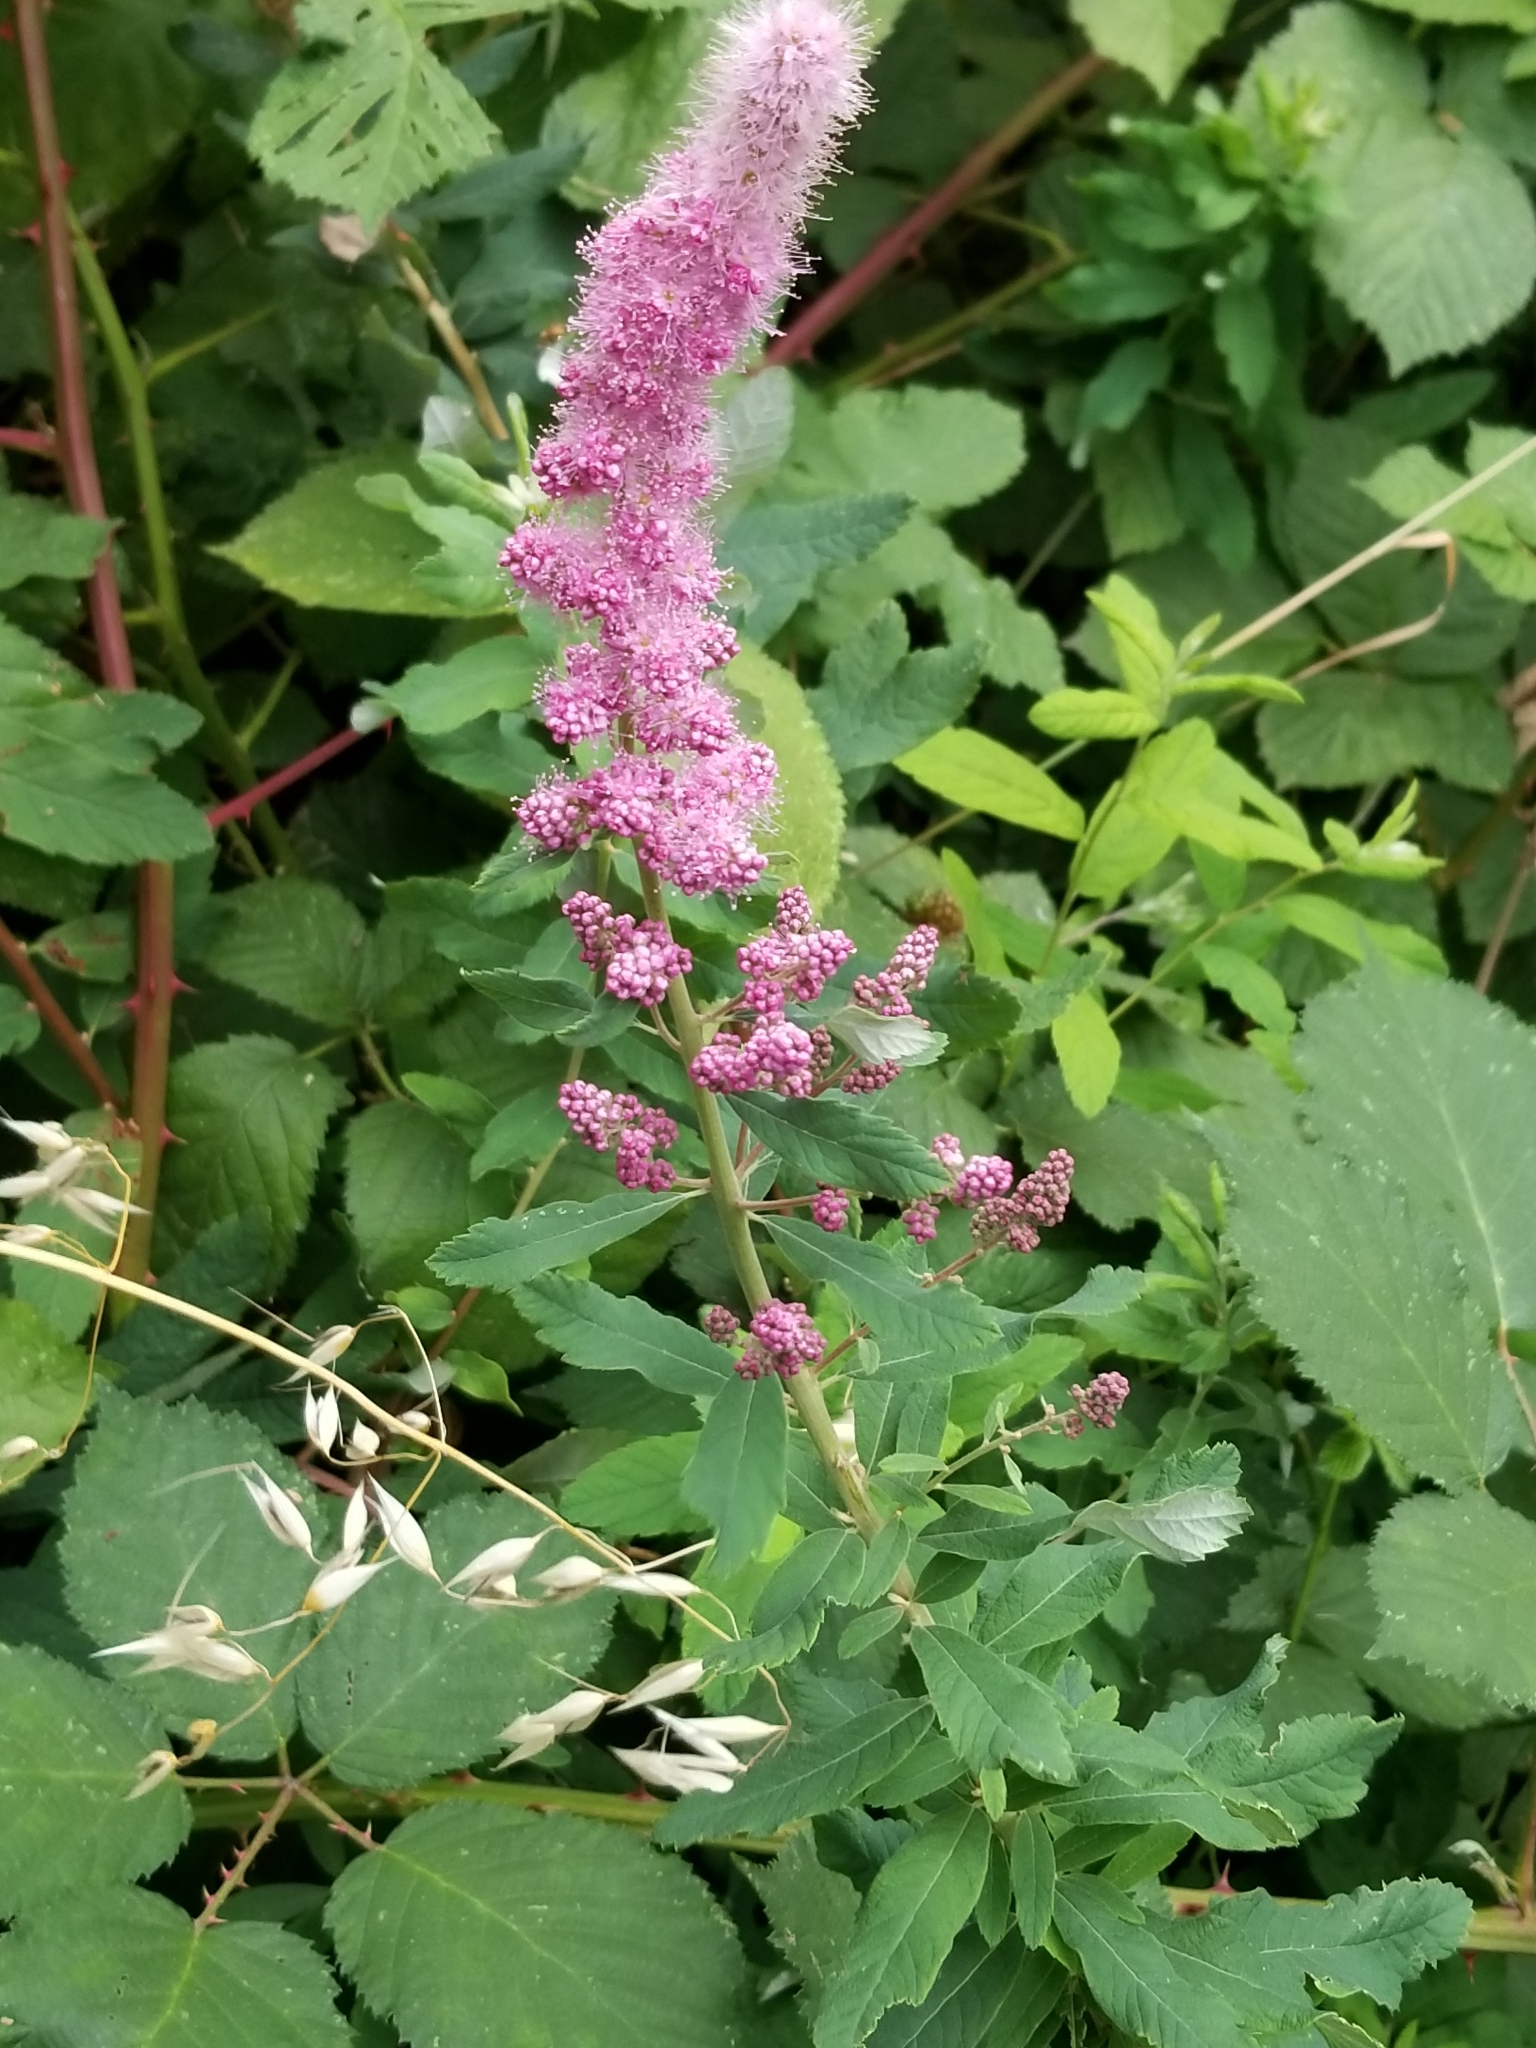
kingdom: Plantae
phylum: Tracheophyta
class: Magnoliopsida
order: Rosales
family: Rosaceae
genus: Spiraea
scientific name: Spiraea douglasii
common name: Steeplebush
